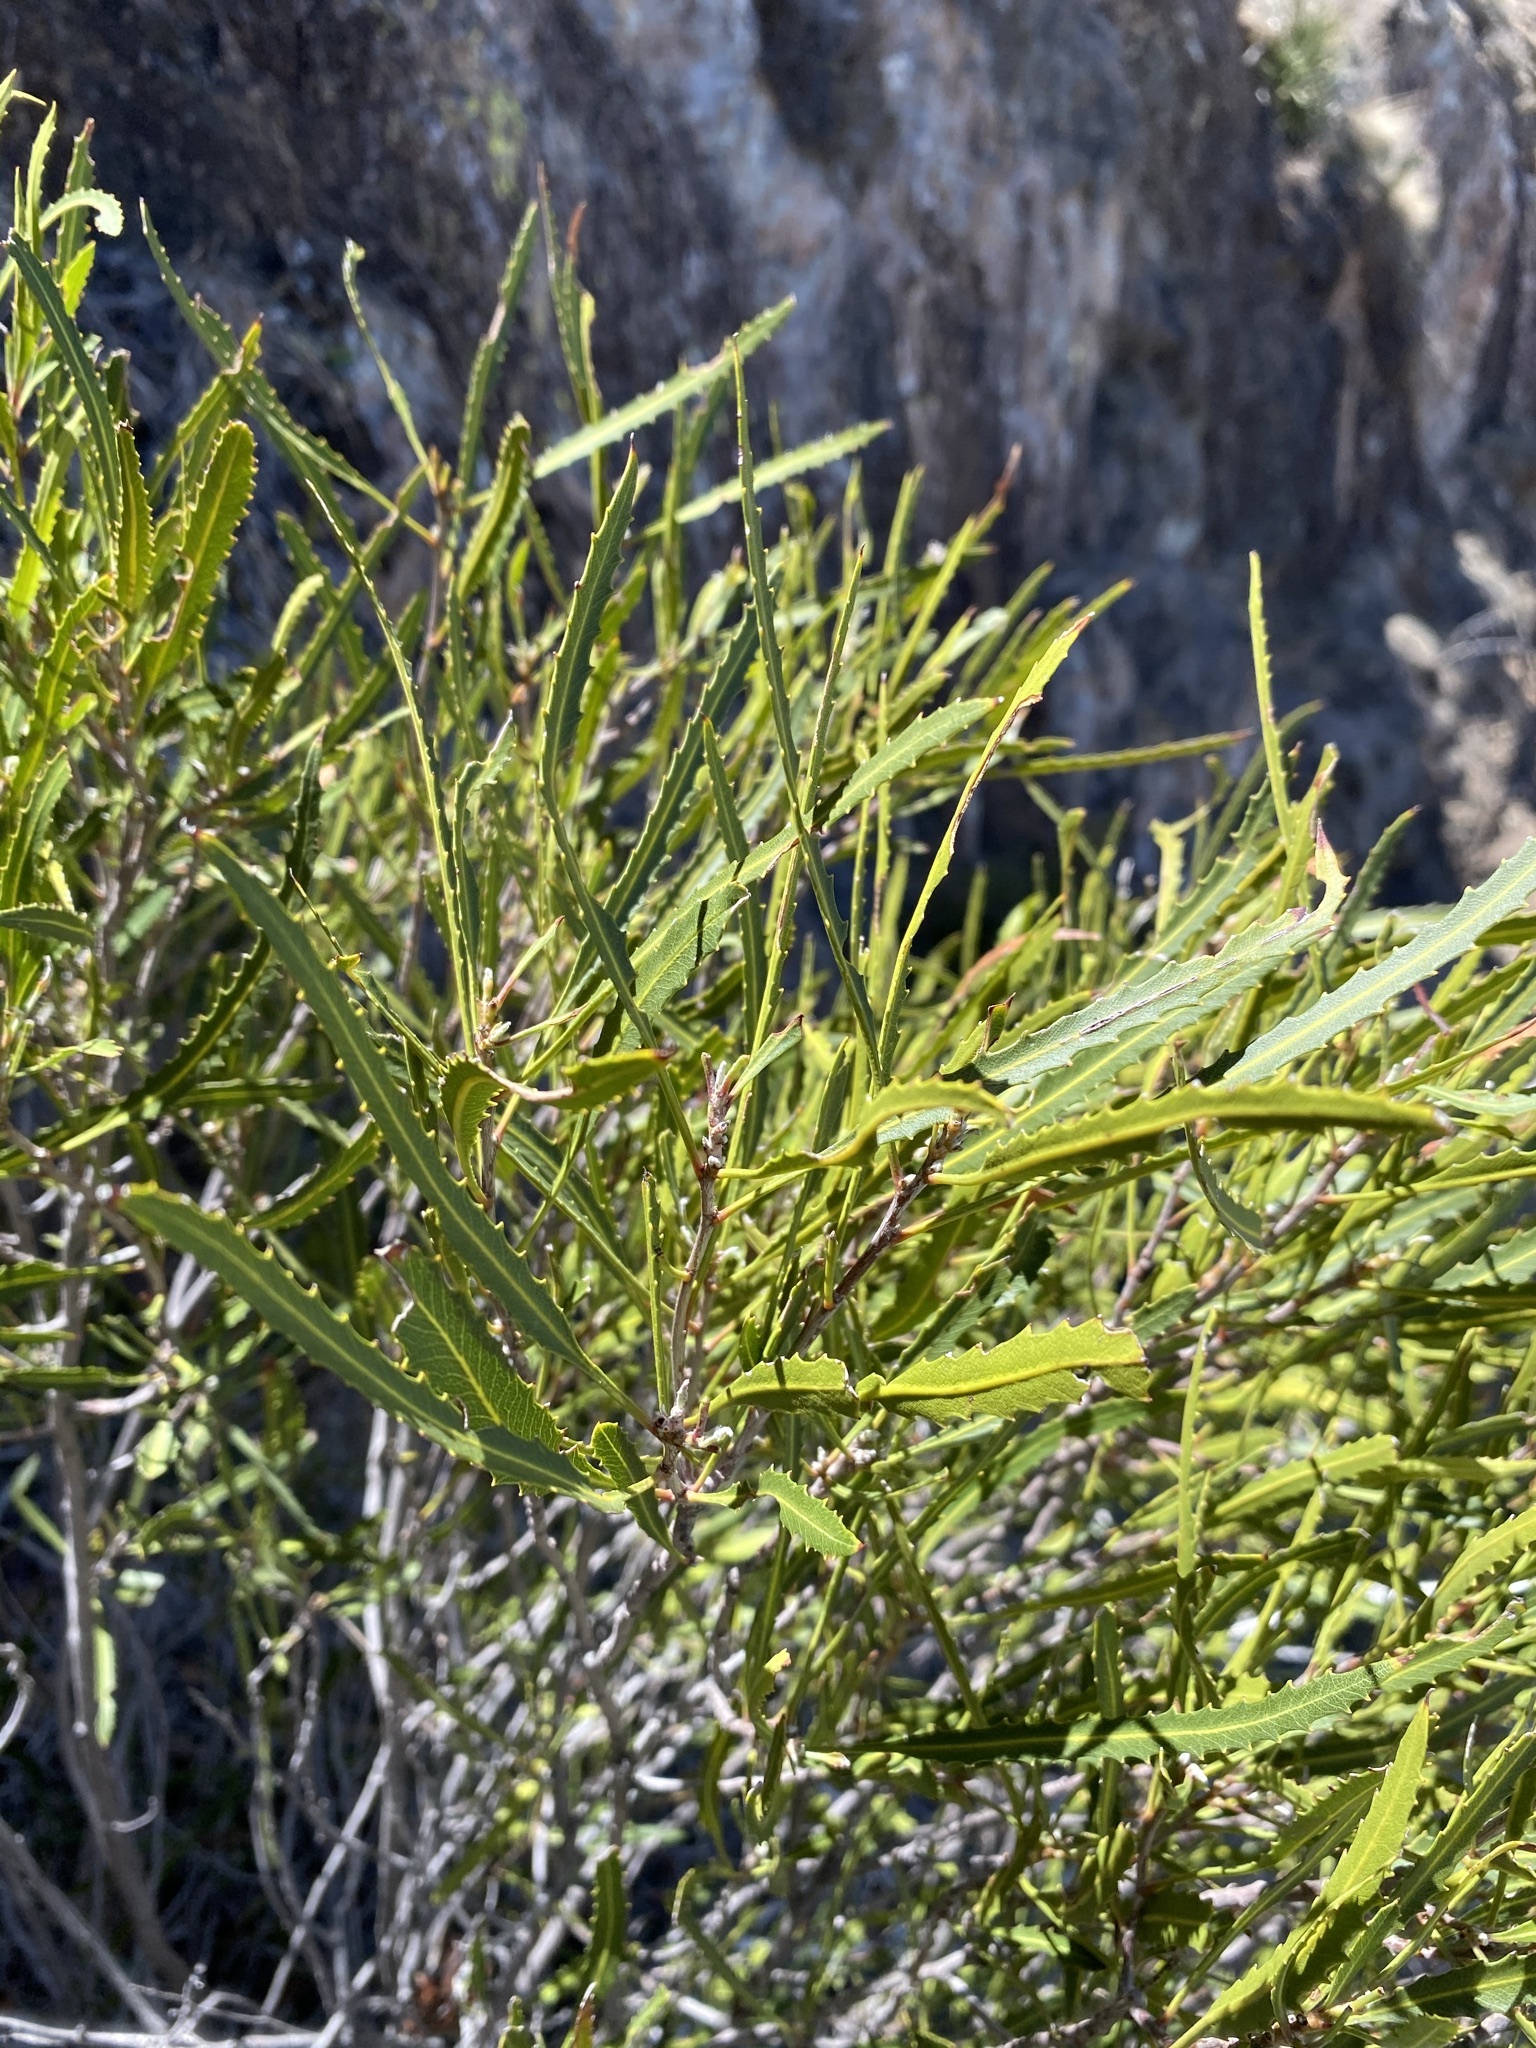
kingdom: Plantae
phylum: Tracheophyta
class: Magnoliopsida
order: Rosales
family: Rosaceae
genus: Vauquelinia
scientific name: Vauquelinia corymbosa
